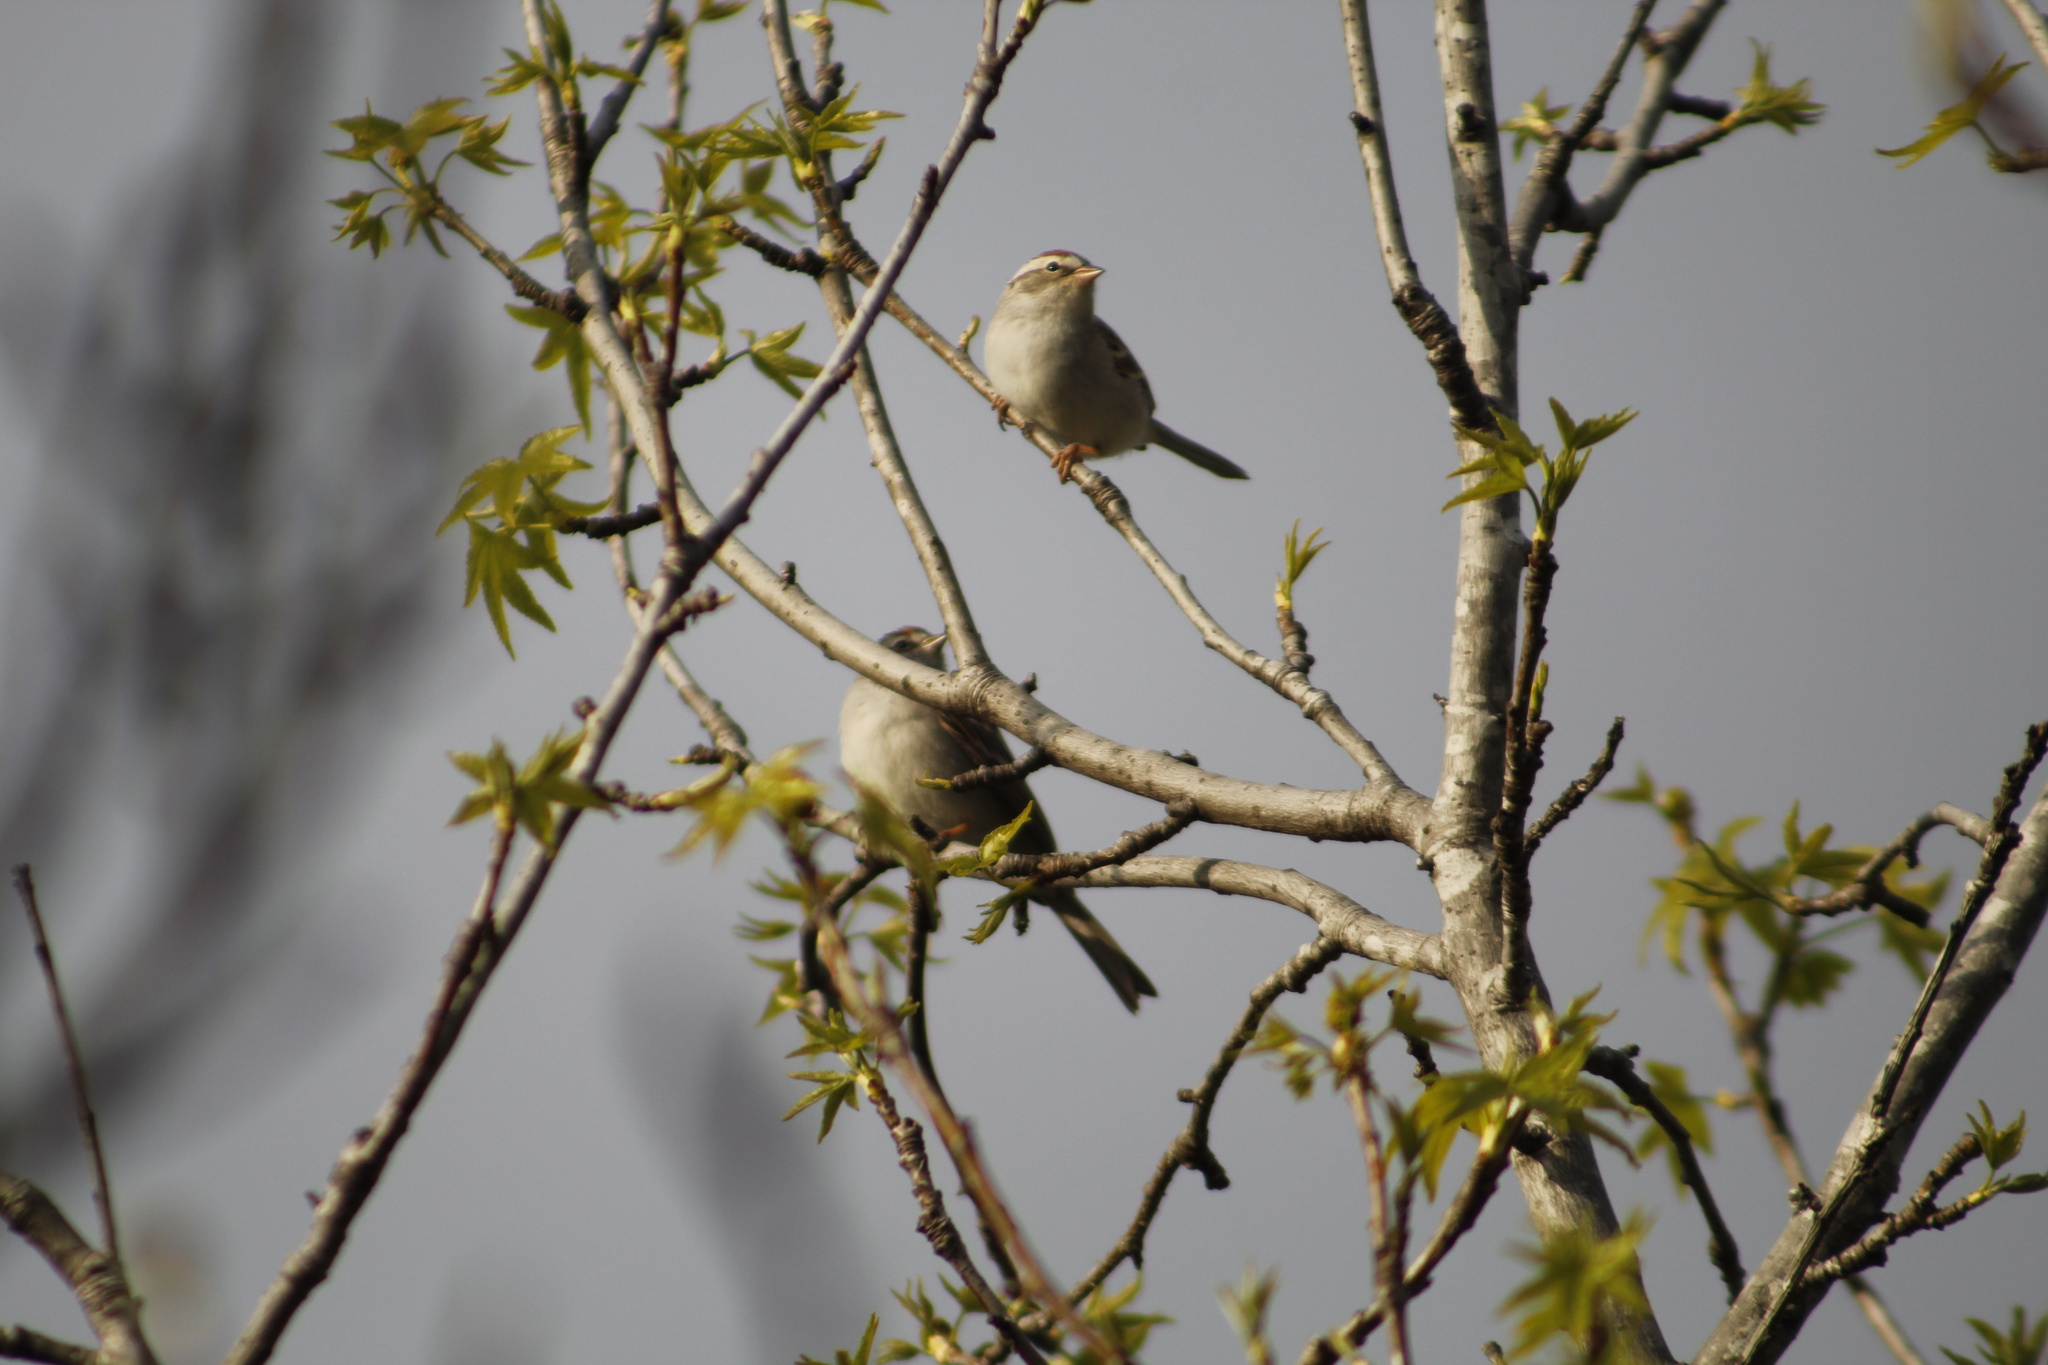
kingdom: Animalia
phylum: Chordata
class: Aves
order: Passeriformes
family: Passerellidae
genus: Spizella
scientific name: Spizella passerina
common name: Chipping sparrow
